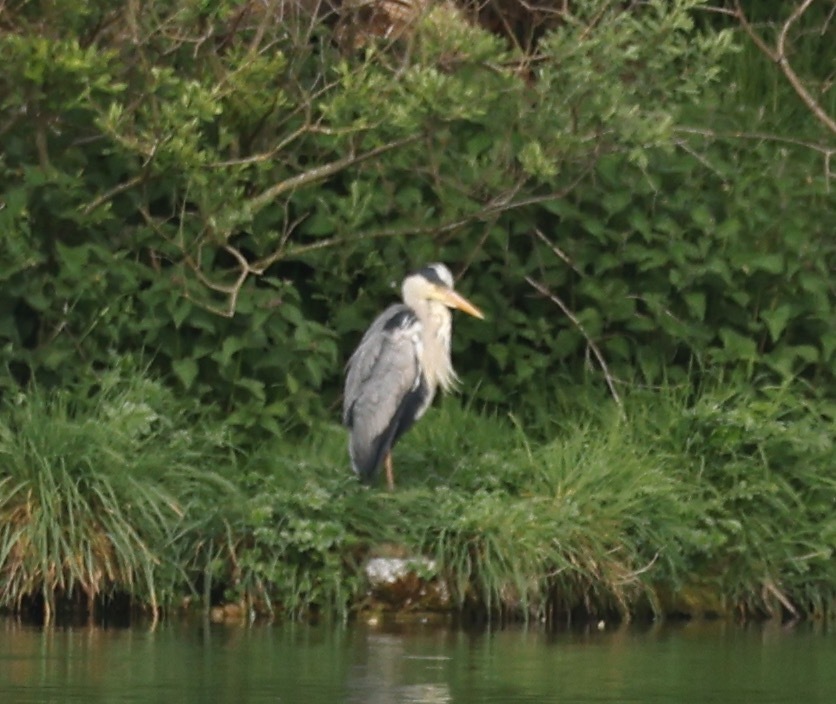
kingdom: Animalia
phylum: Chordata
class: Aves
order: Pelecaniformes
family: Ardeidae
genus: Ardea
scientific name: Ardea cinerea
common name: Grey heron
